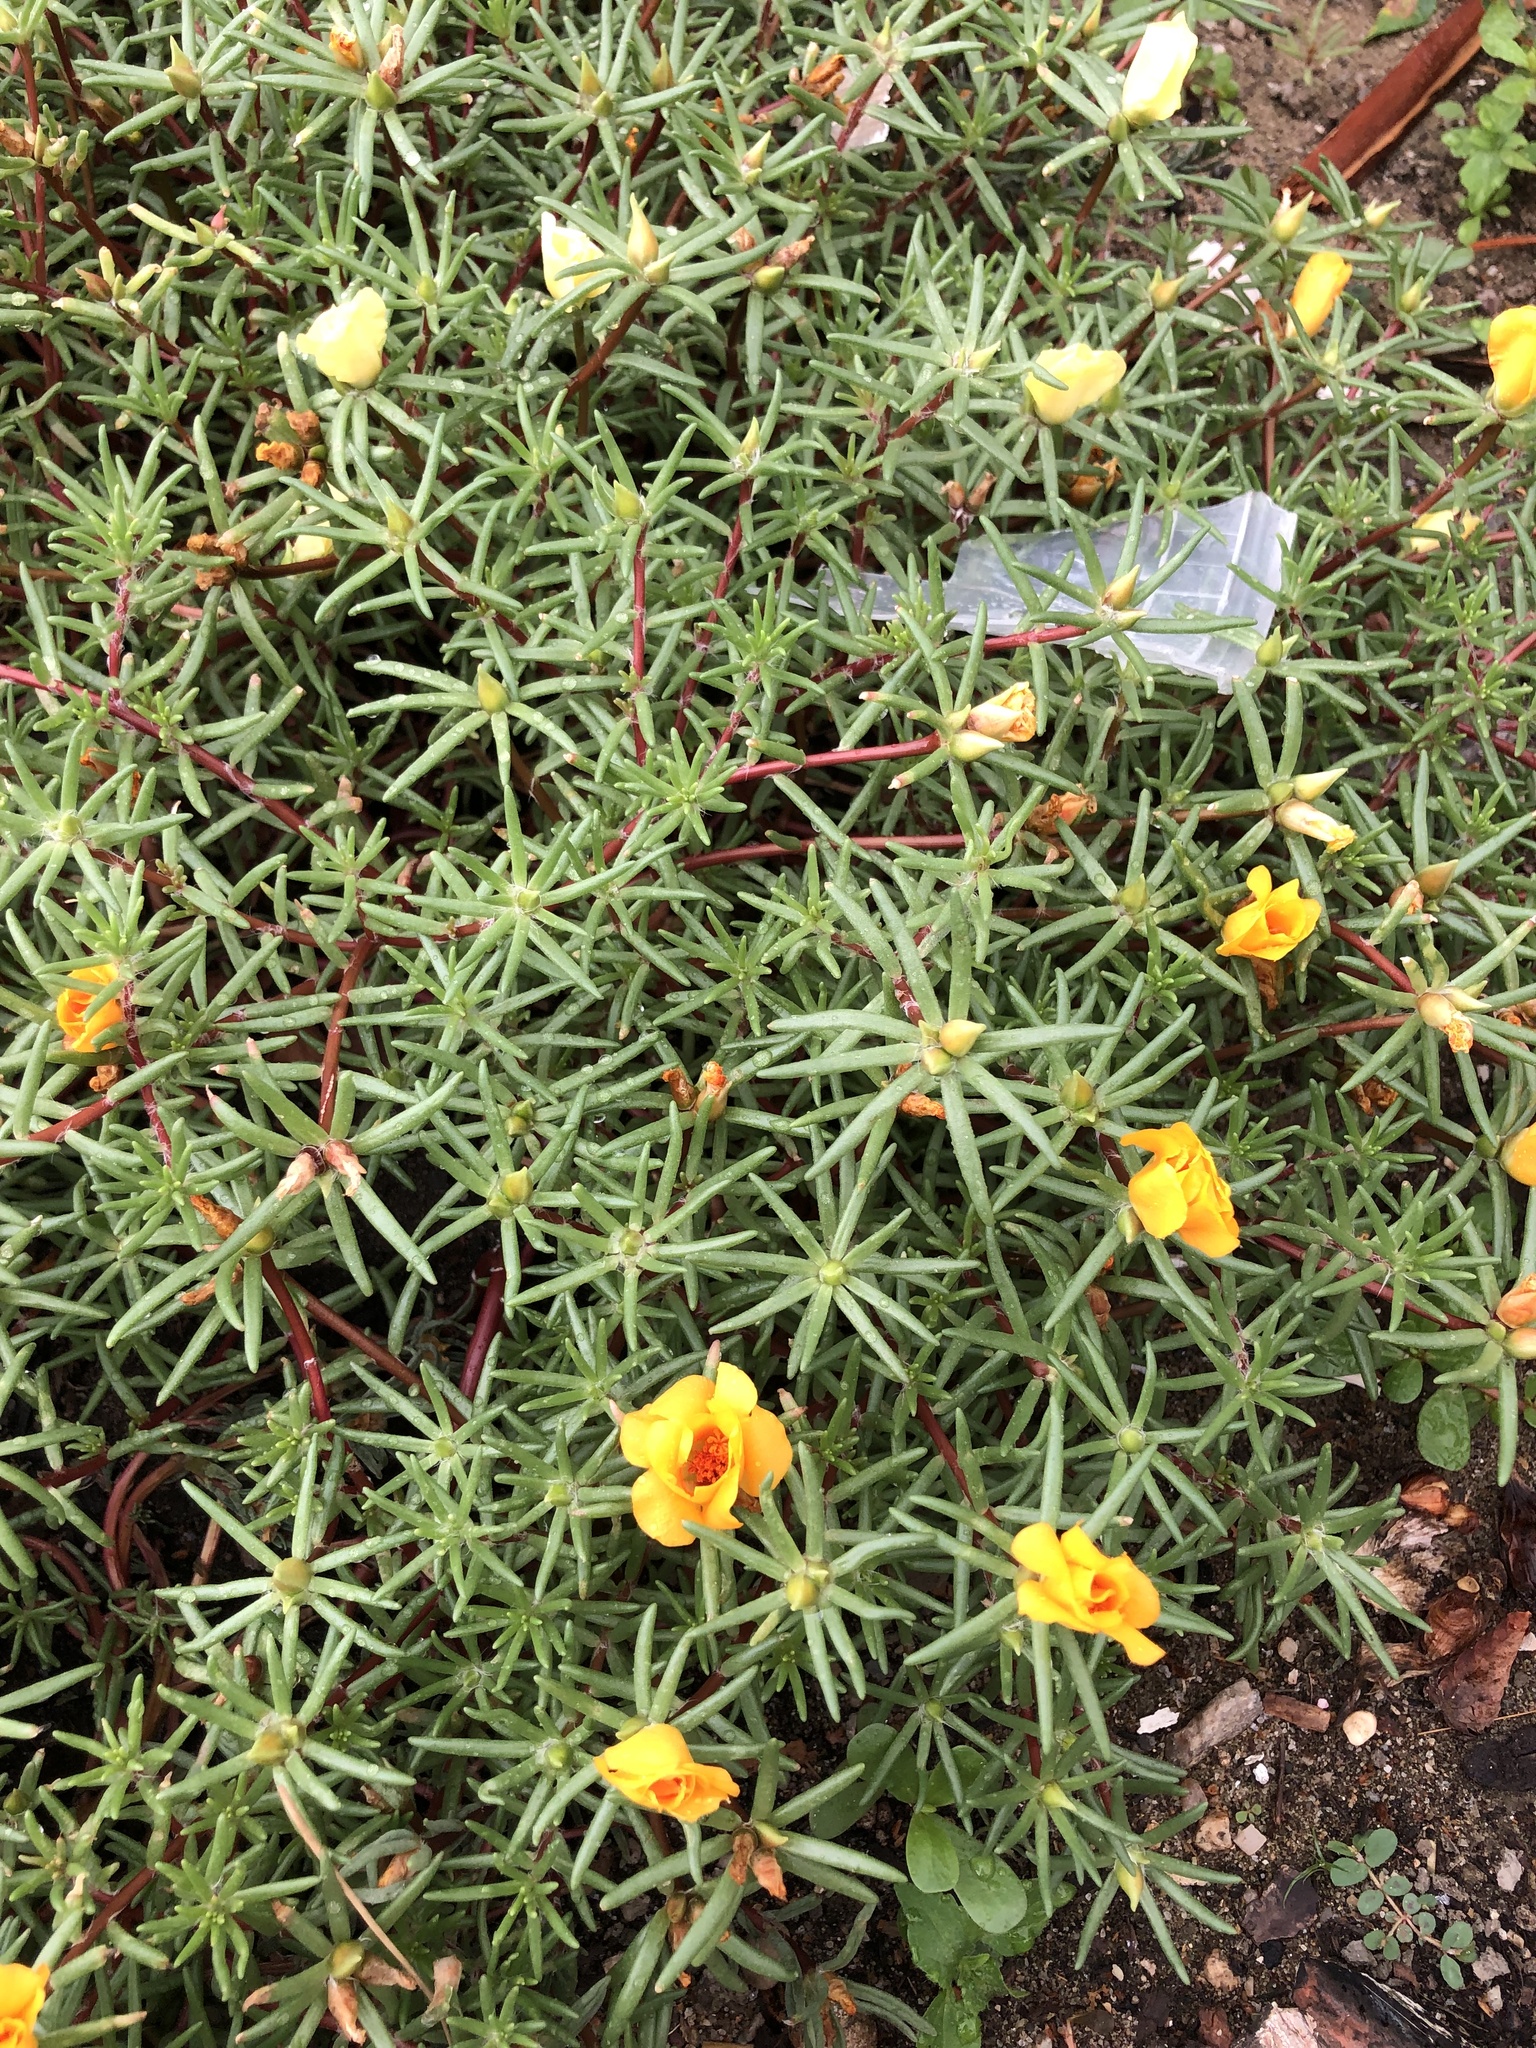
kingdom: Plantae
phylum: Tracheophyta
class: Magnoliopsida
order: Caryophyllales
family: Portulacaceae
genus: Portulaca
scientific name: Portulaca grandiflora
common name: Moss-rose
